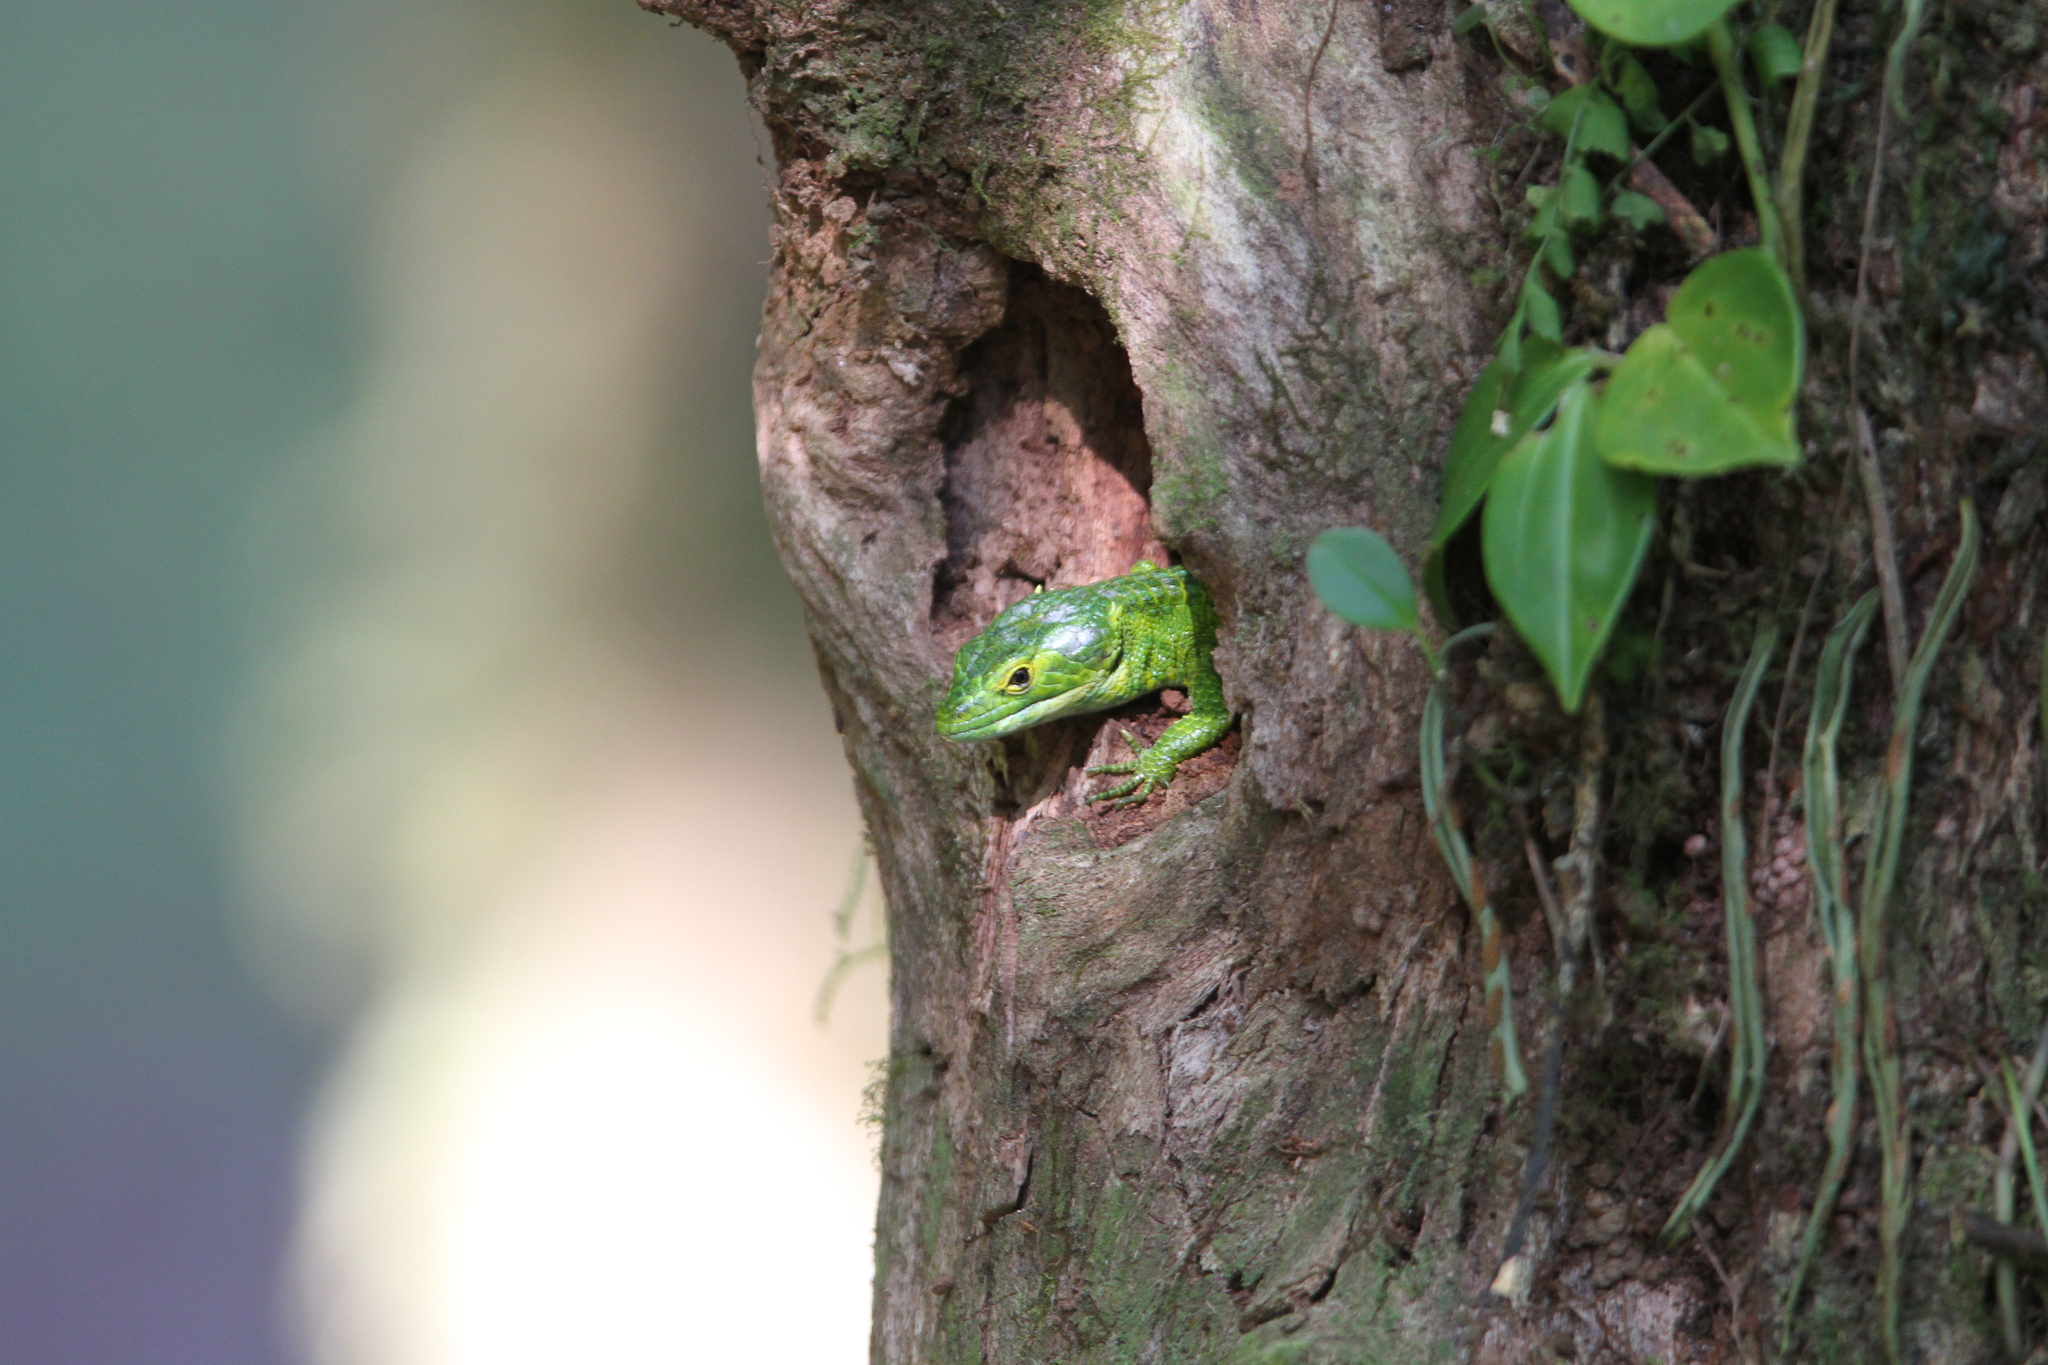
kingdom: Animalia
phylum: Chordata
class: Squamata
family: Anguidae
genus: Abronia
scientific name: Abronia smithi
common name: Smith's arboreal alligator lizard
